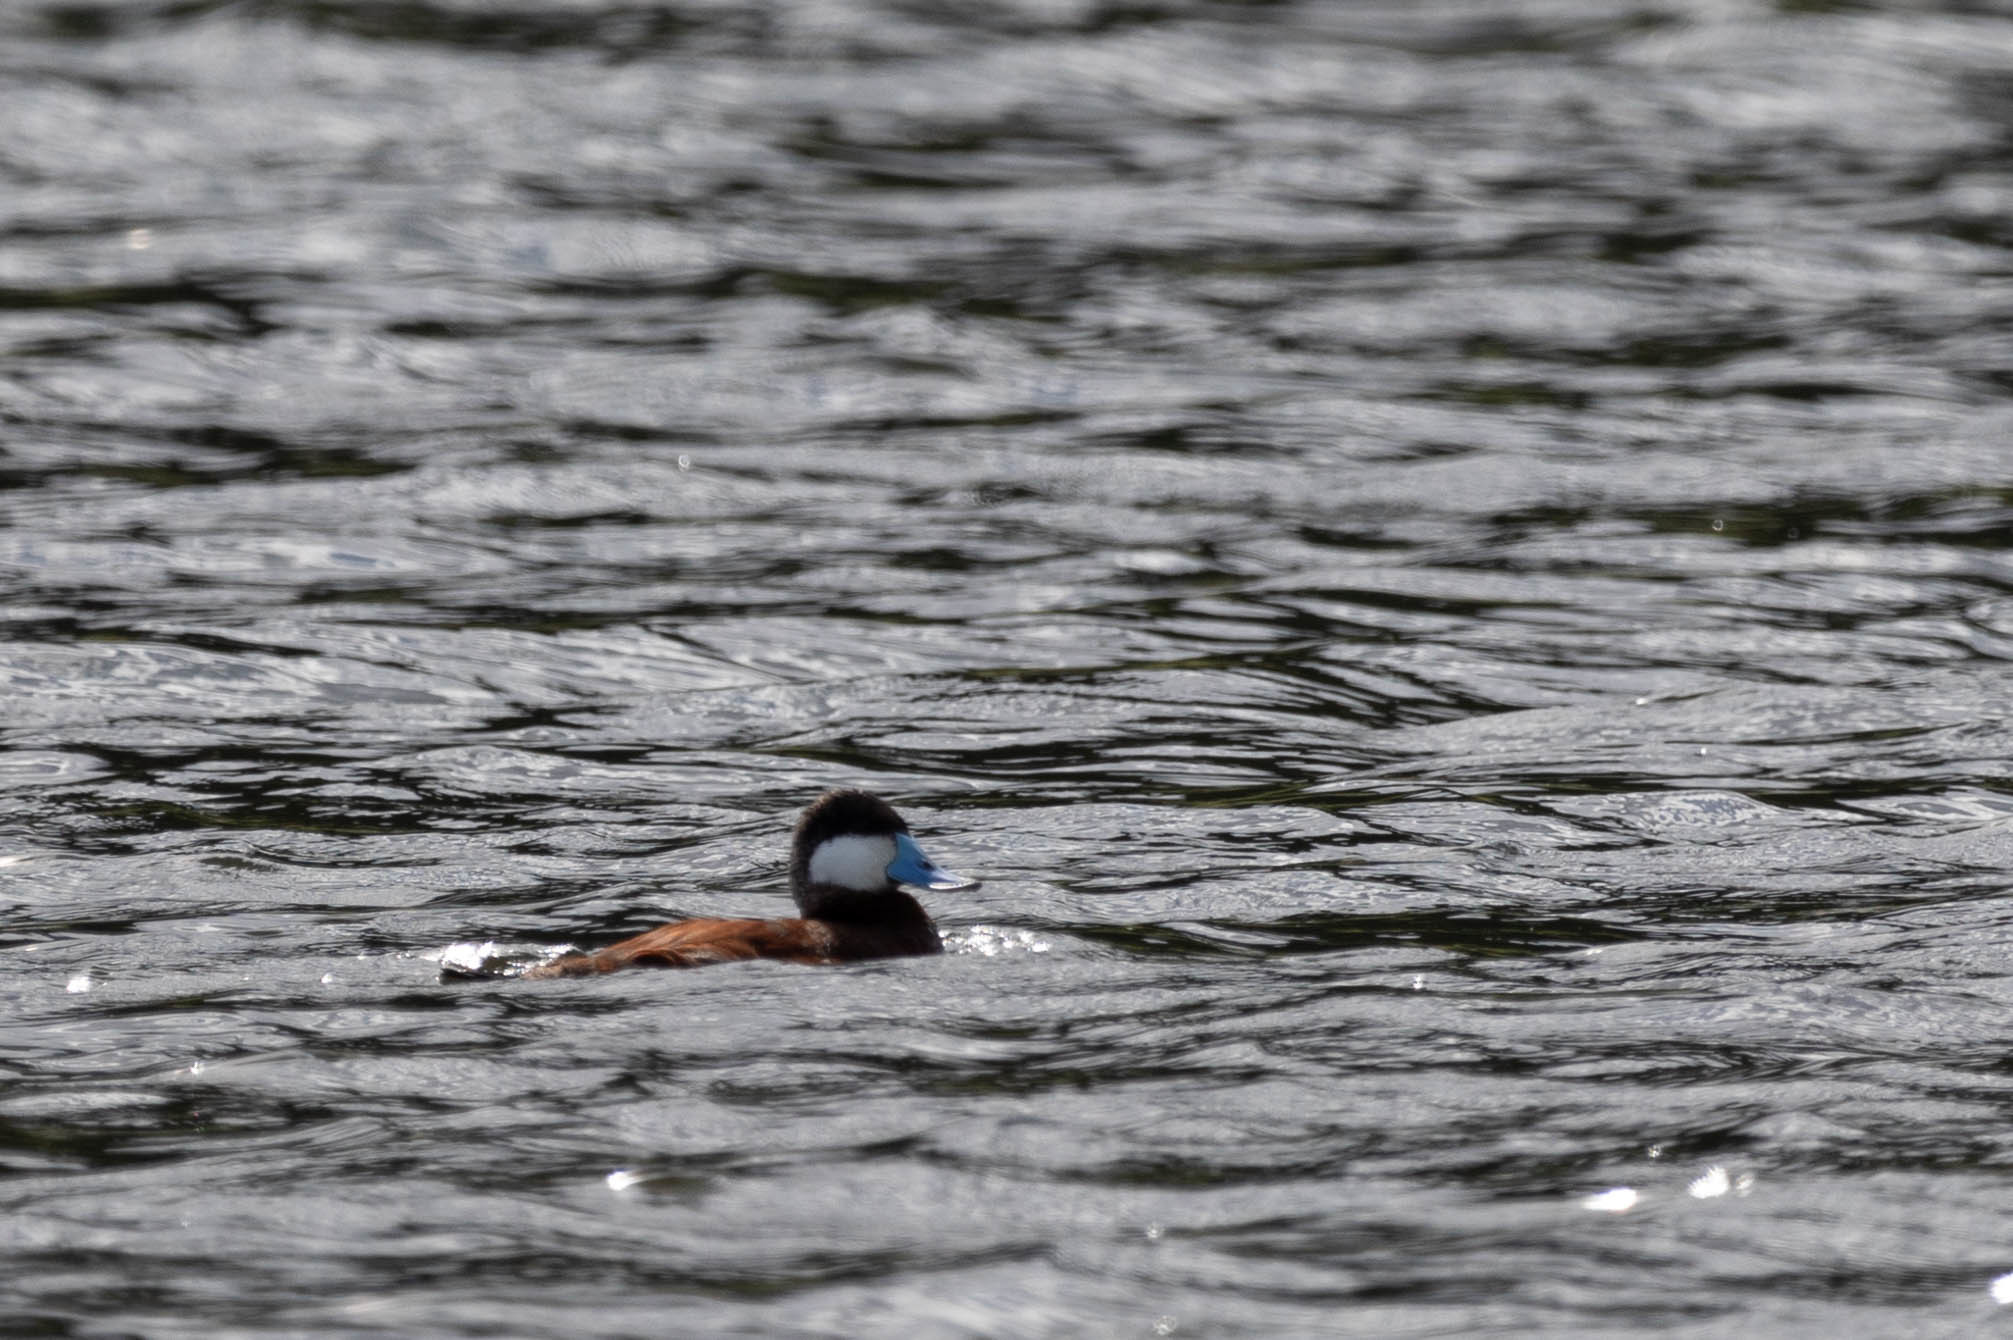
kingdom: Animalia
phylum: Chordata
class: Aves
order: Anseriformes
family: Anatidae
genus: Oxyura
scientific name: Oxyura jamaicensis
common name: Ruddy duck
